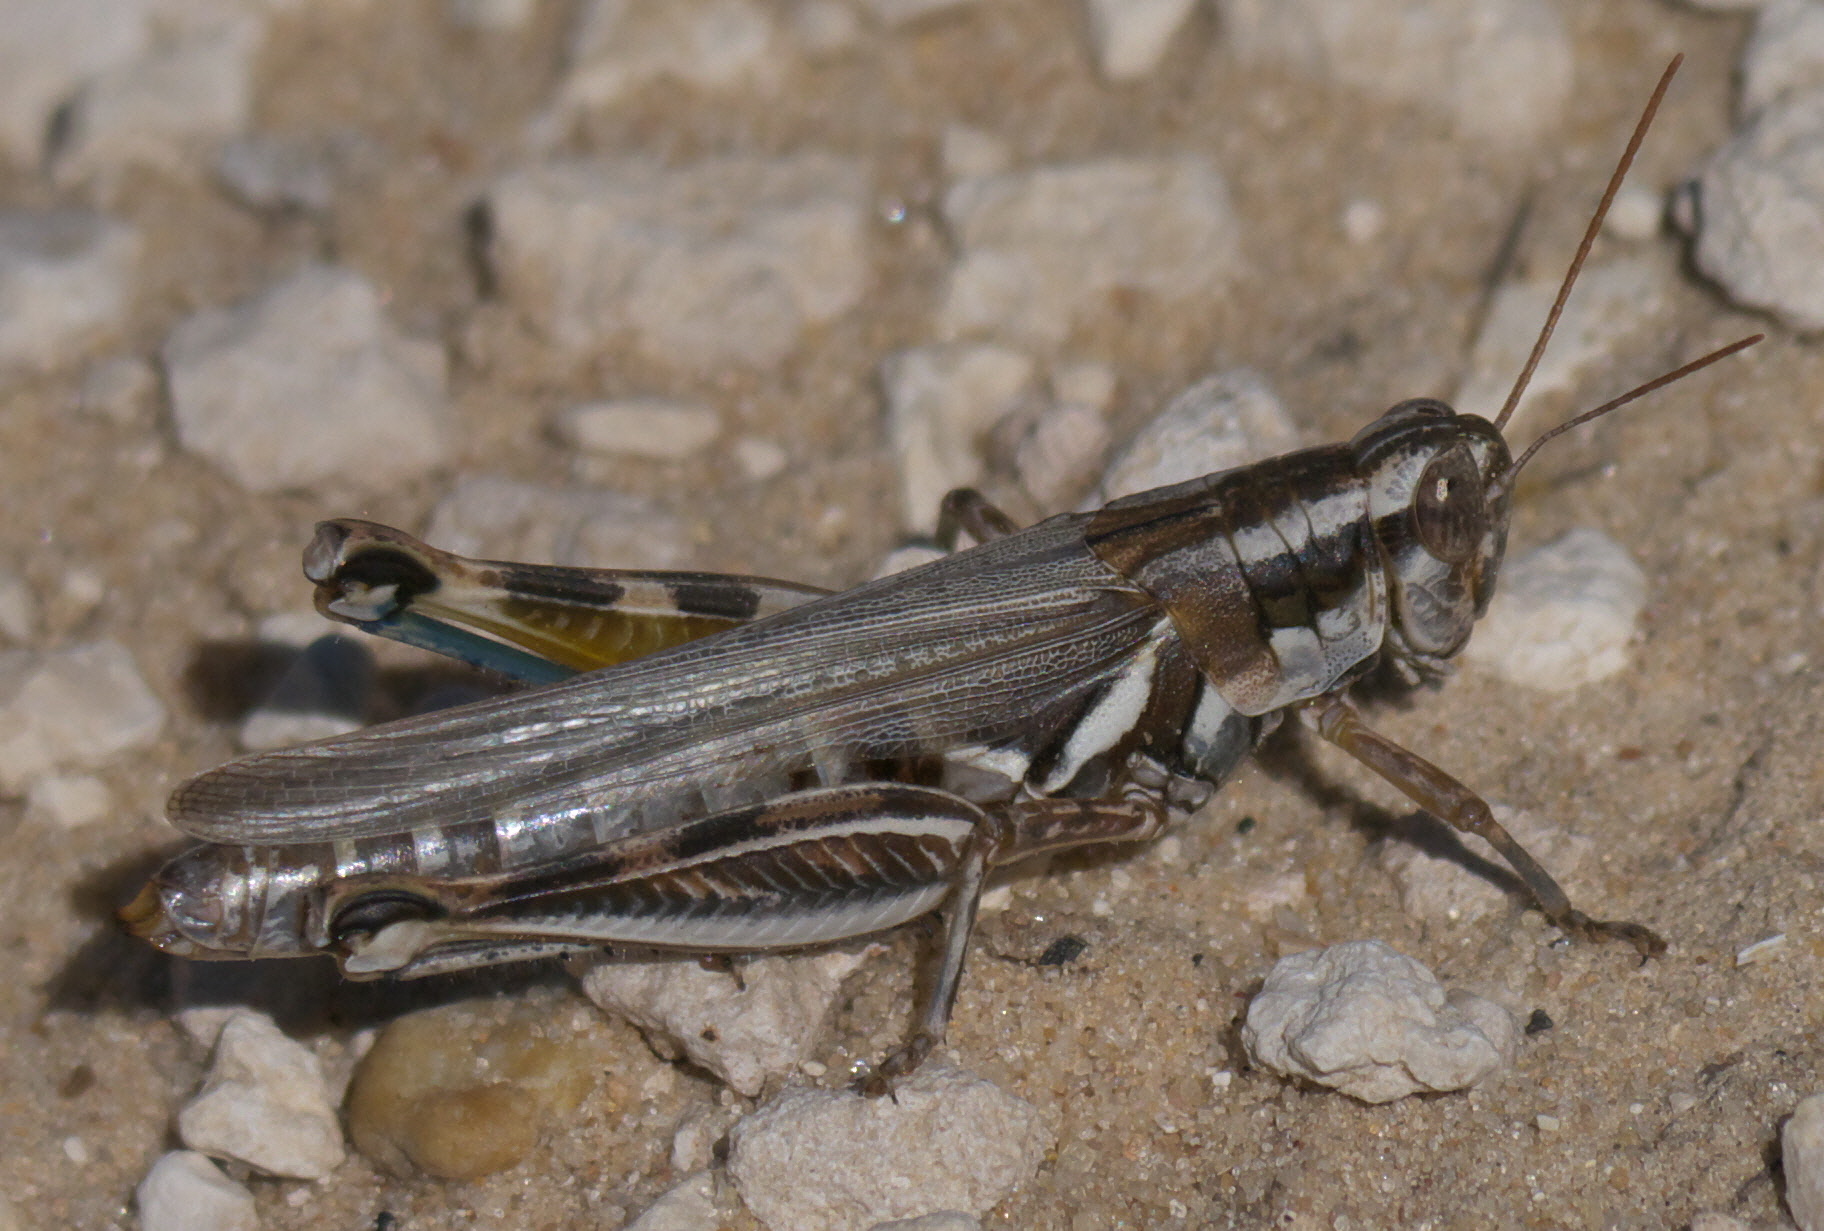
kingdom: Animalia
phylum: Arthropoda
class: Insecta
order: Orthoptera
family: Acrididae
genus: Melanoplus
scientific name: Melanoplus bowditchi
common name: Sagebrush grasshopper
